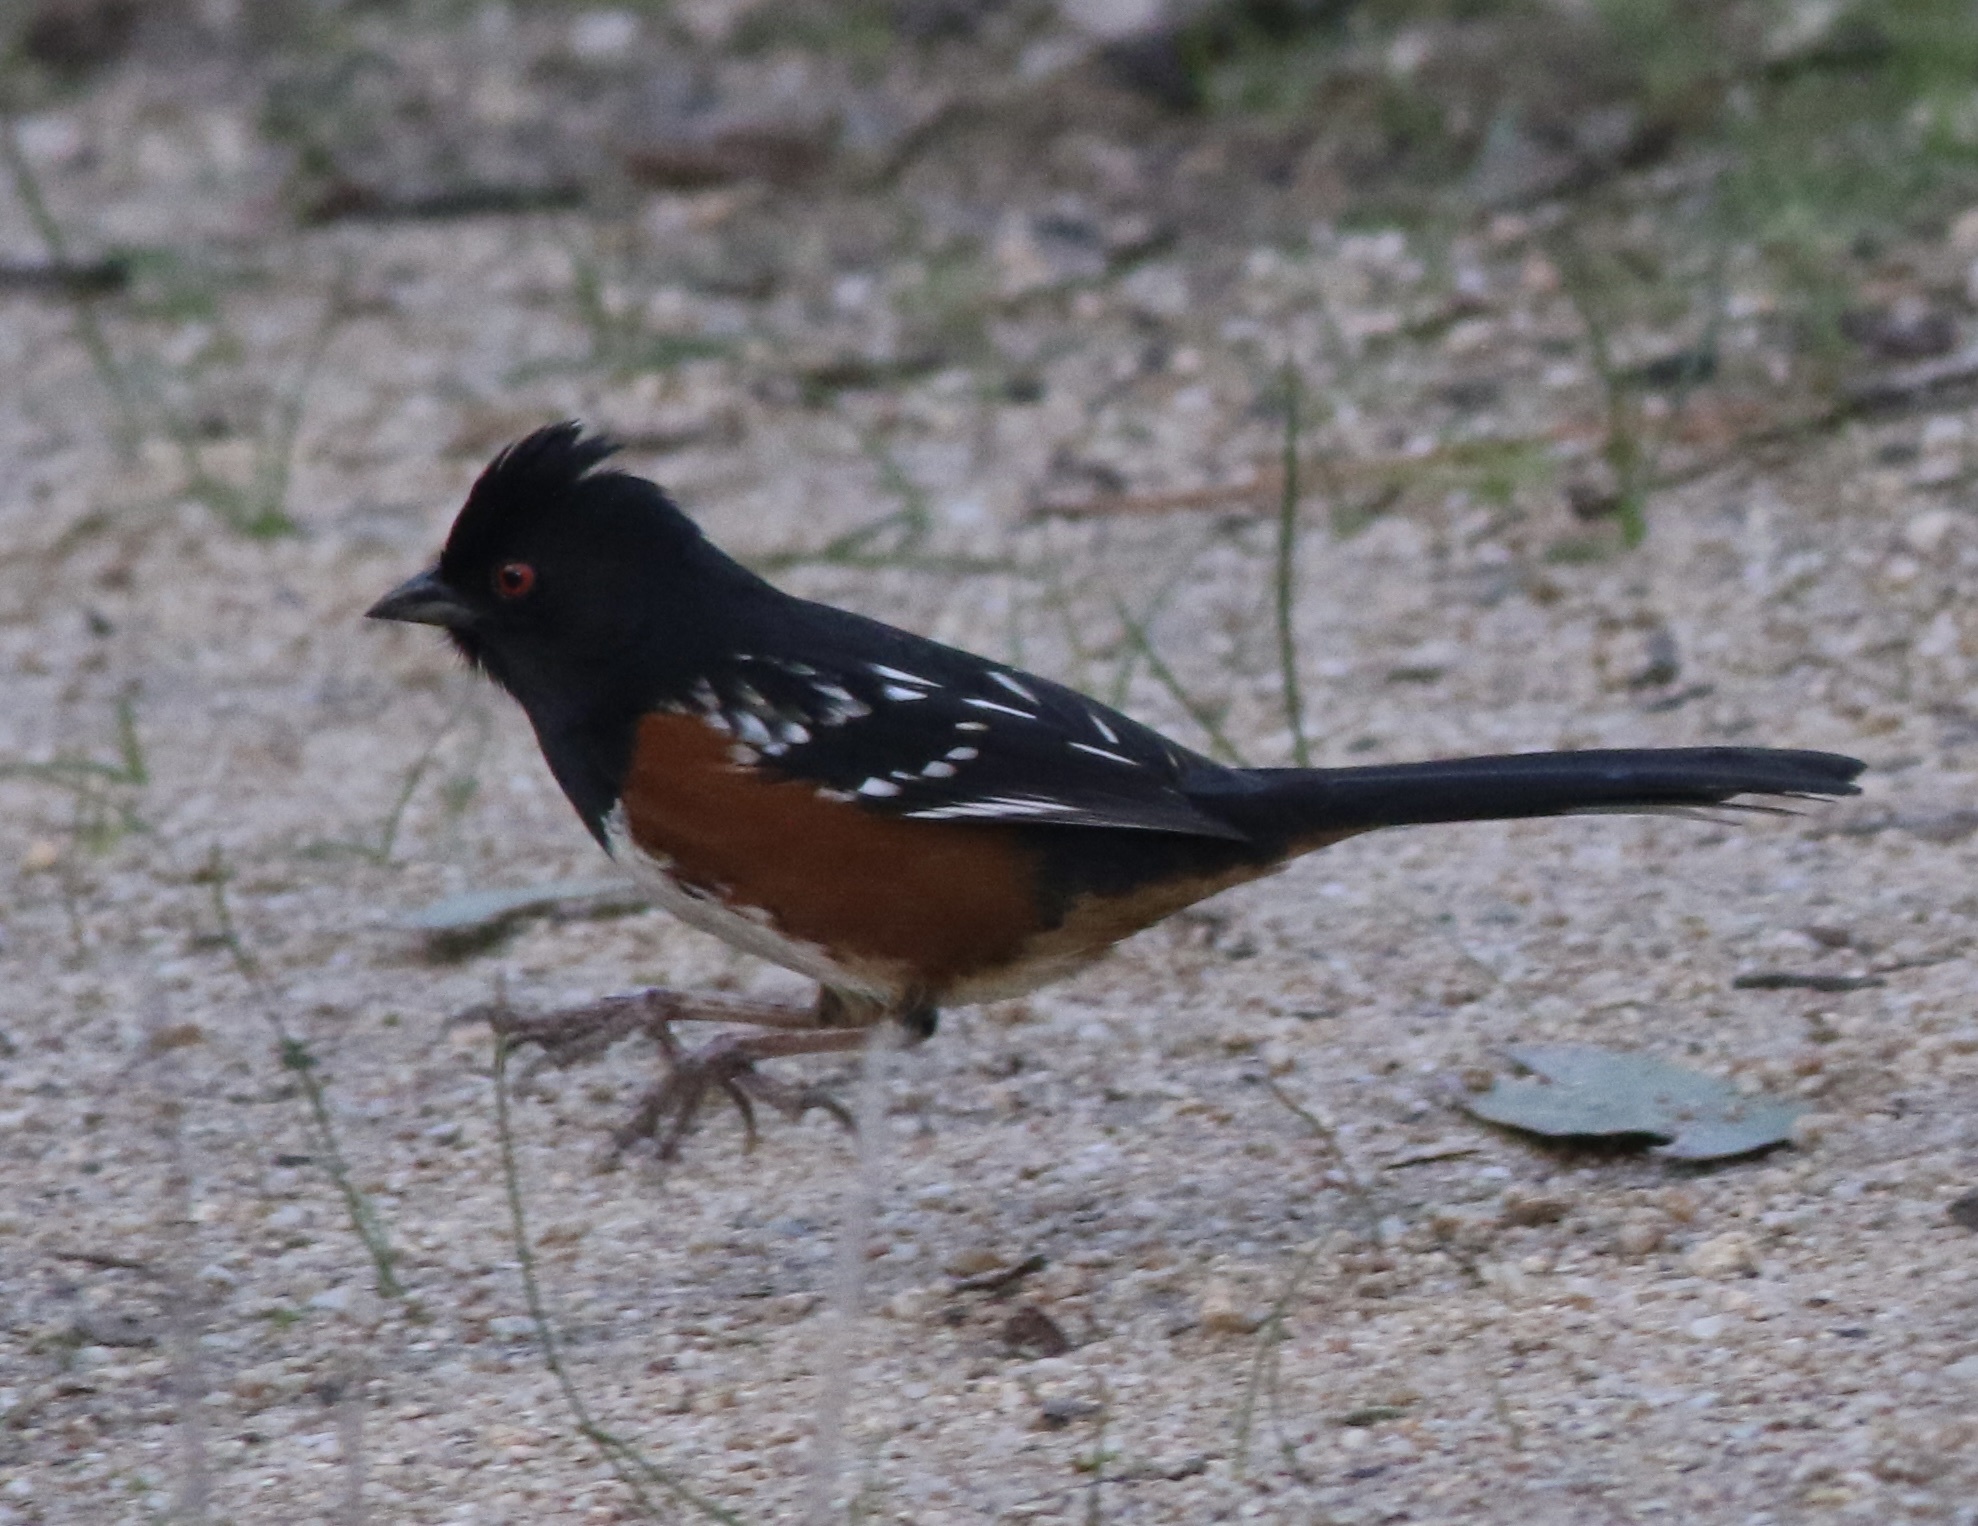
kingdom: Animalia
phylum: Chordata
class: Aves
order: Passeriformes
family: Passerellidae
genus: Pipilo
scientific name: Pipilo maculatus
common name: Spotted towhee
